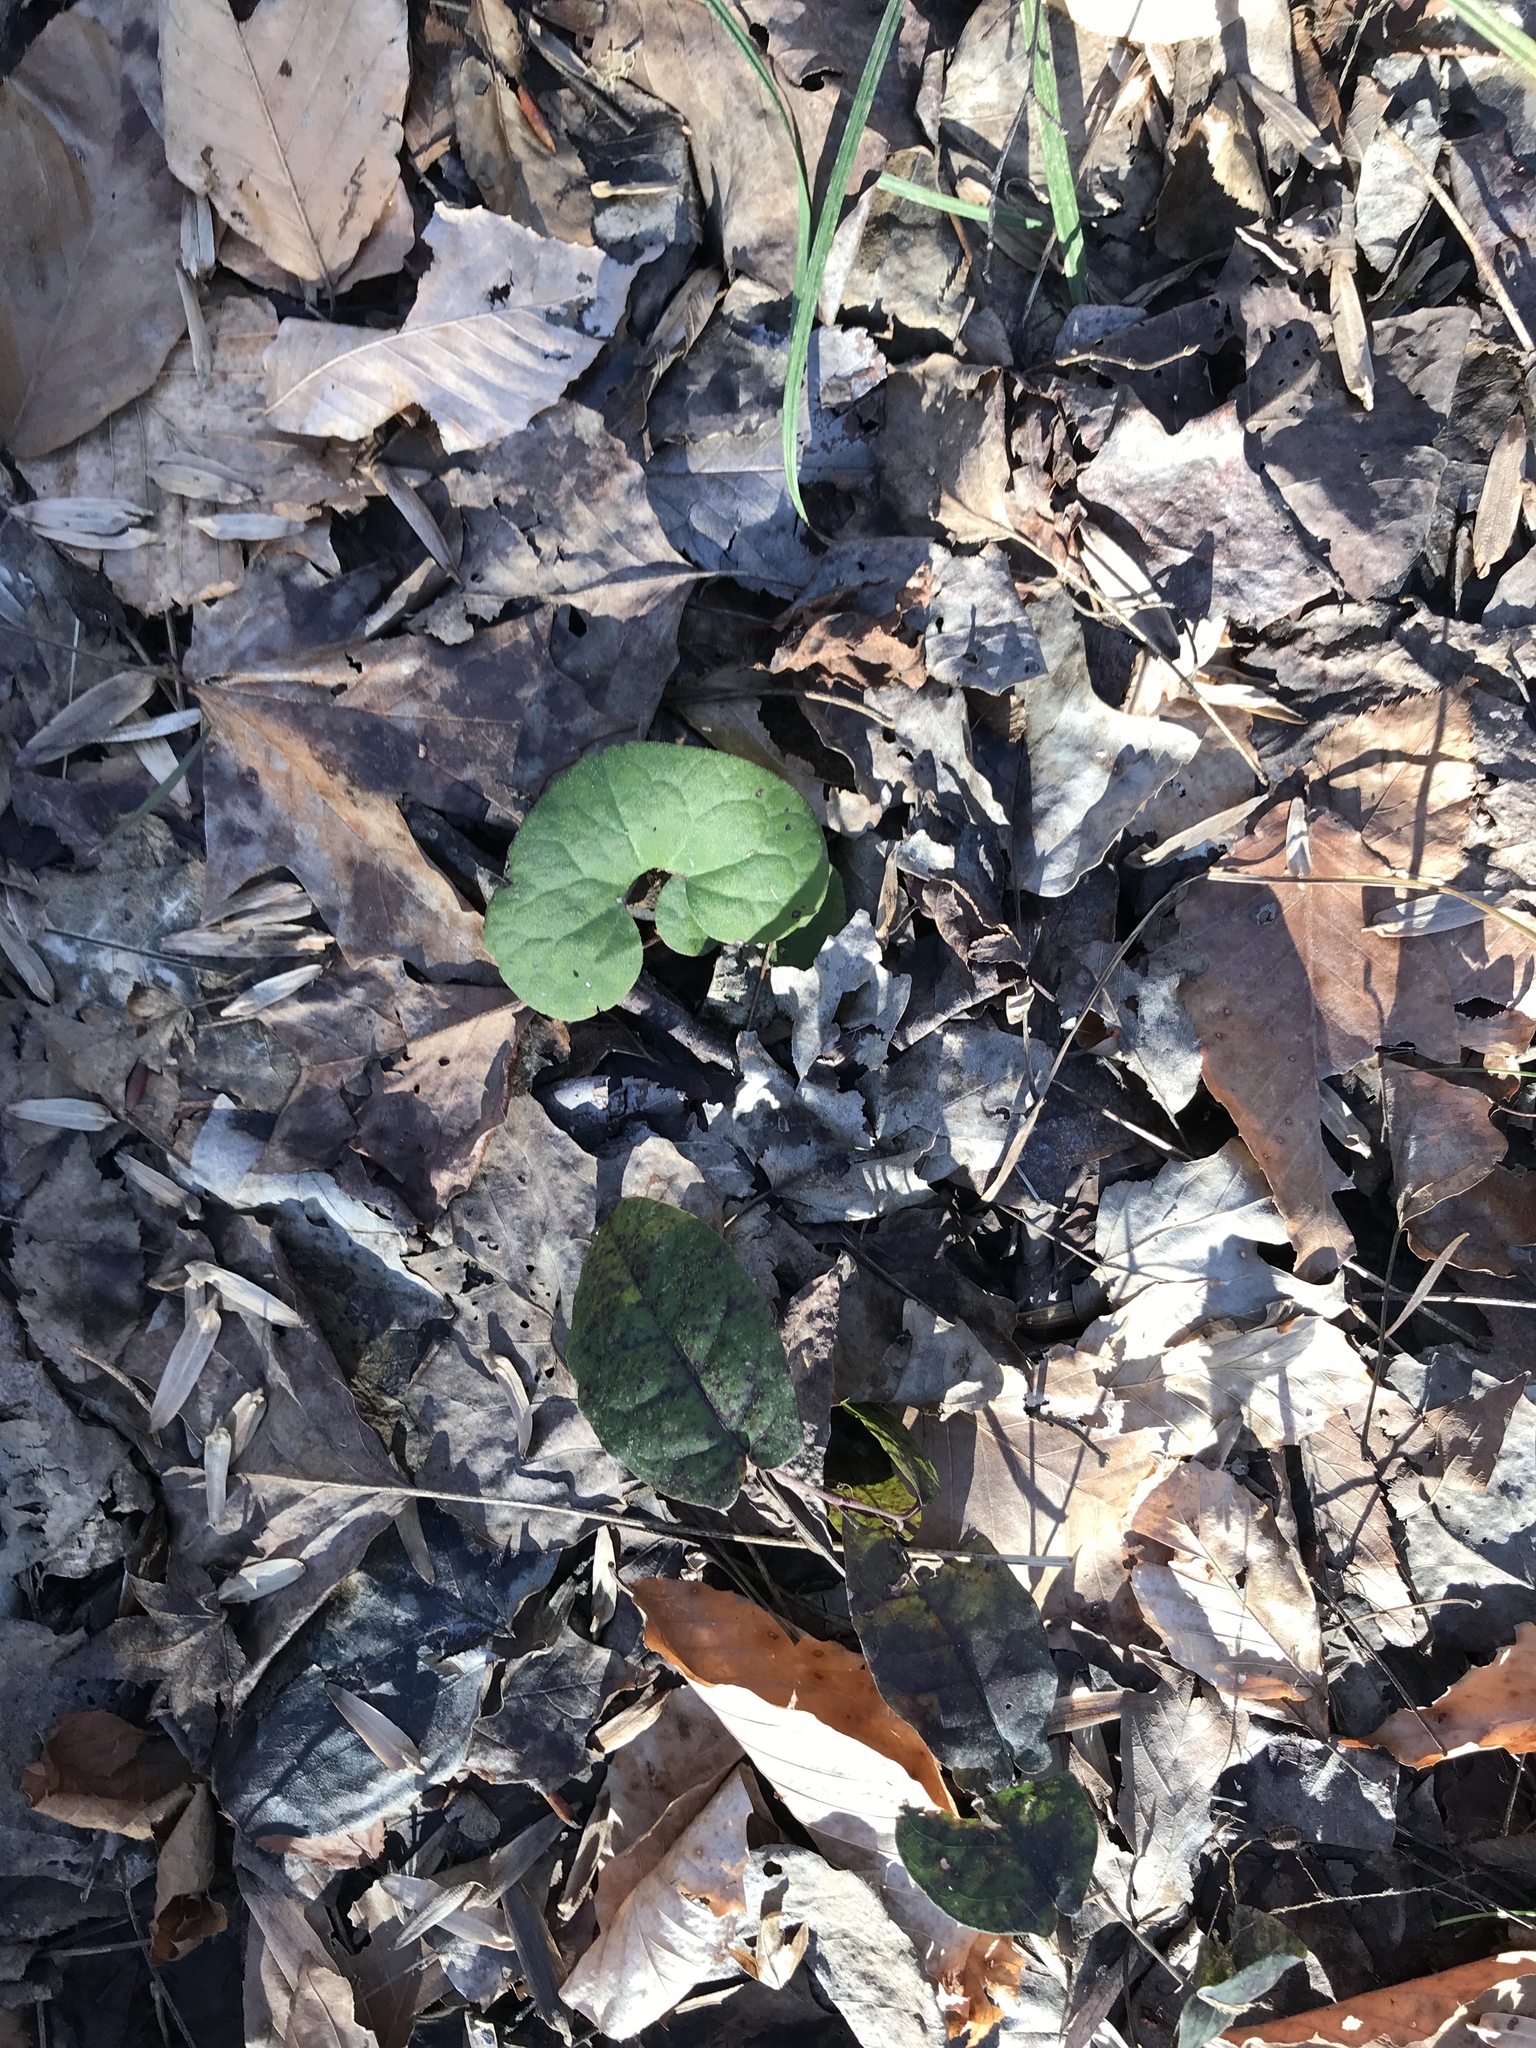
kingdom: Plantae
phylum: Tracheophyta
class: Magnoliopsida
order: Piperales
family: Aristolochiaceae
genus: Asarum
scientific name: Asarum canadense
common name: Wild ginger
